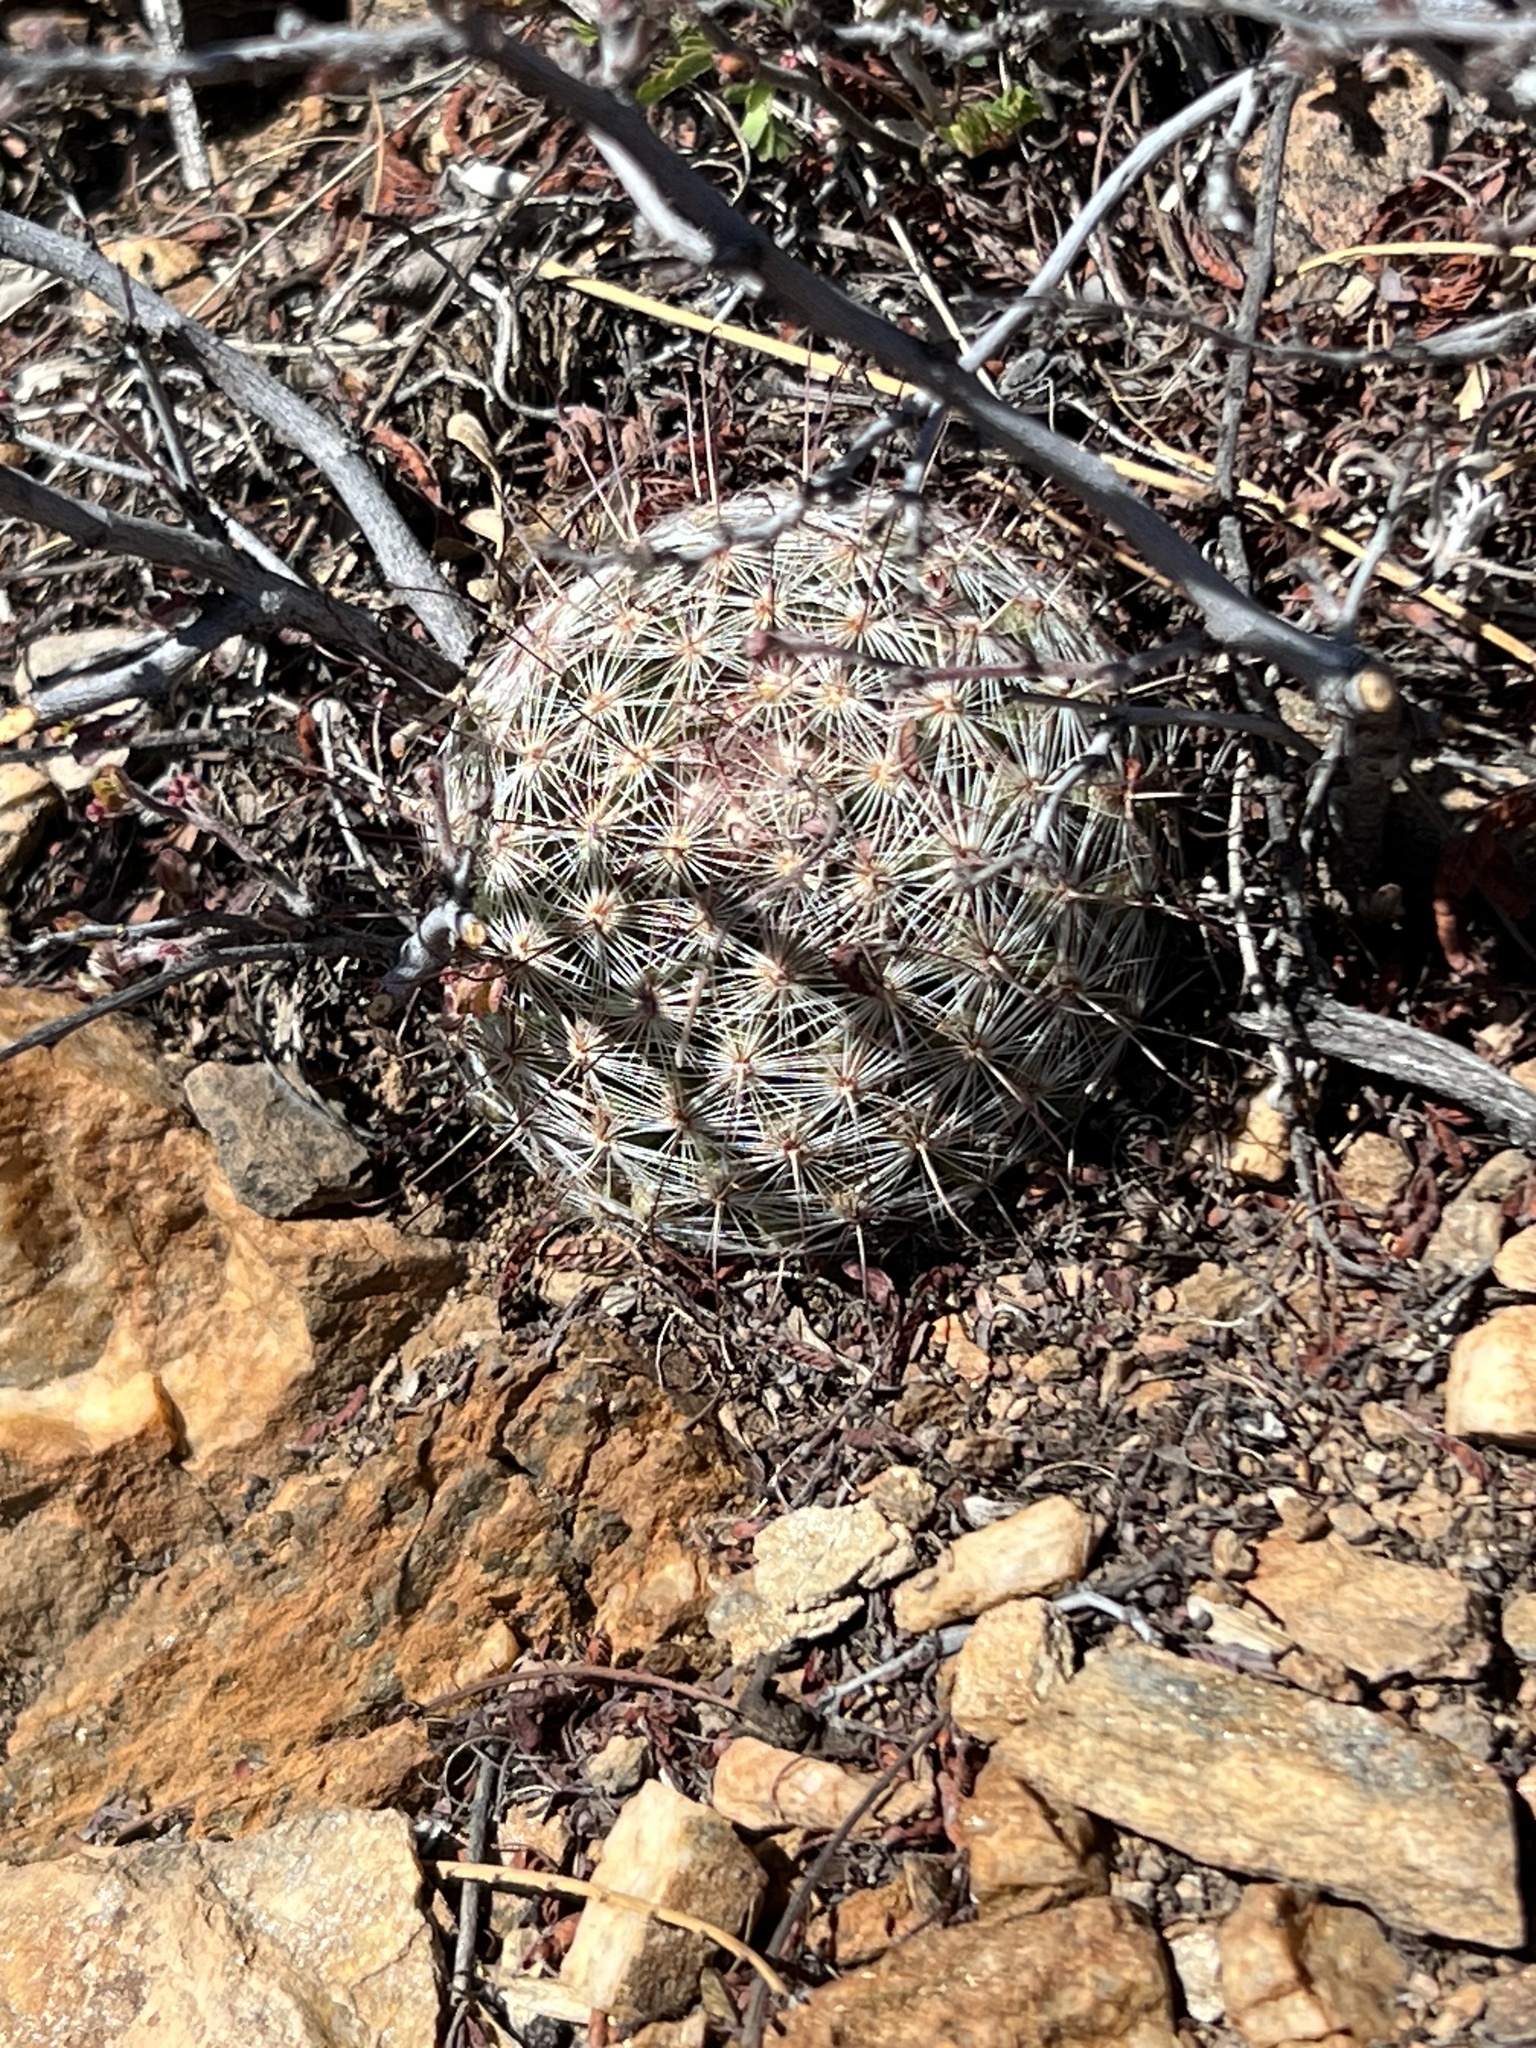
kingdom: Plantae
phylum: Tracheophyta
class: Magnoliopsida
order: Caryophyllales
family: Cactaceae
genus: Cochemiea
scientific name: Cochemiea grahamii
